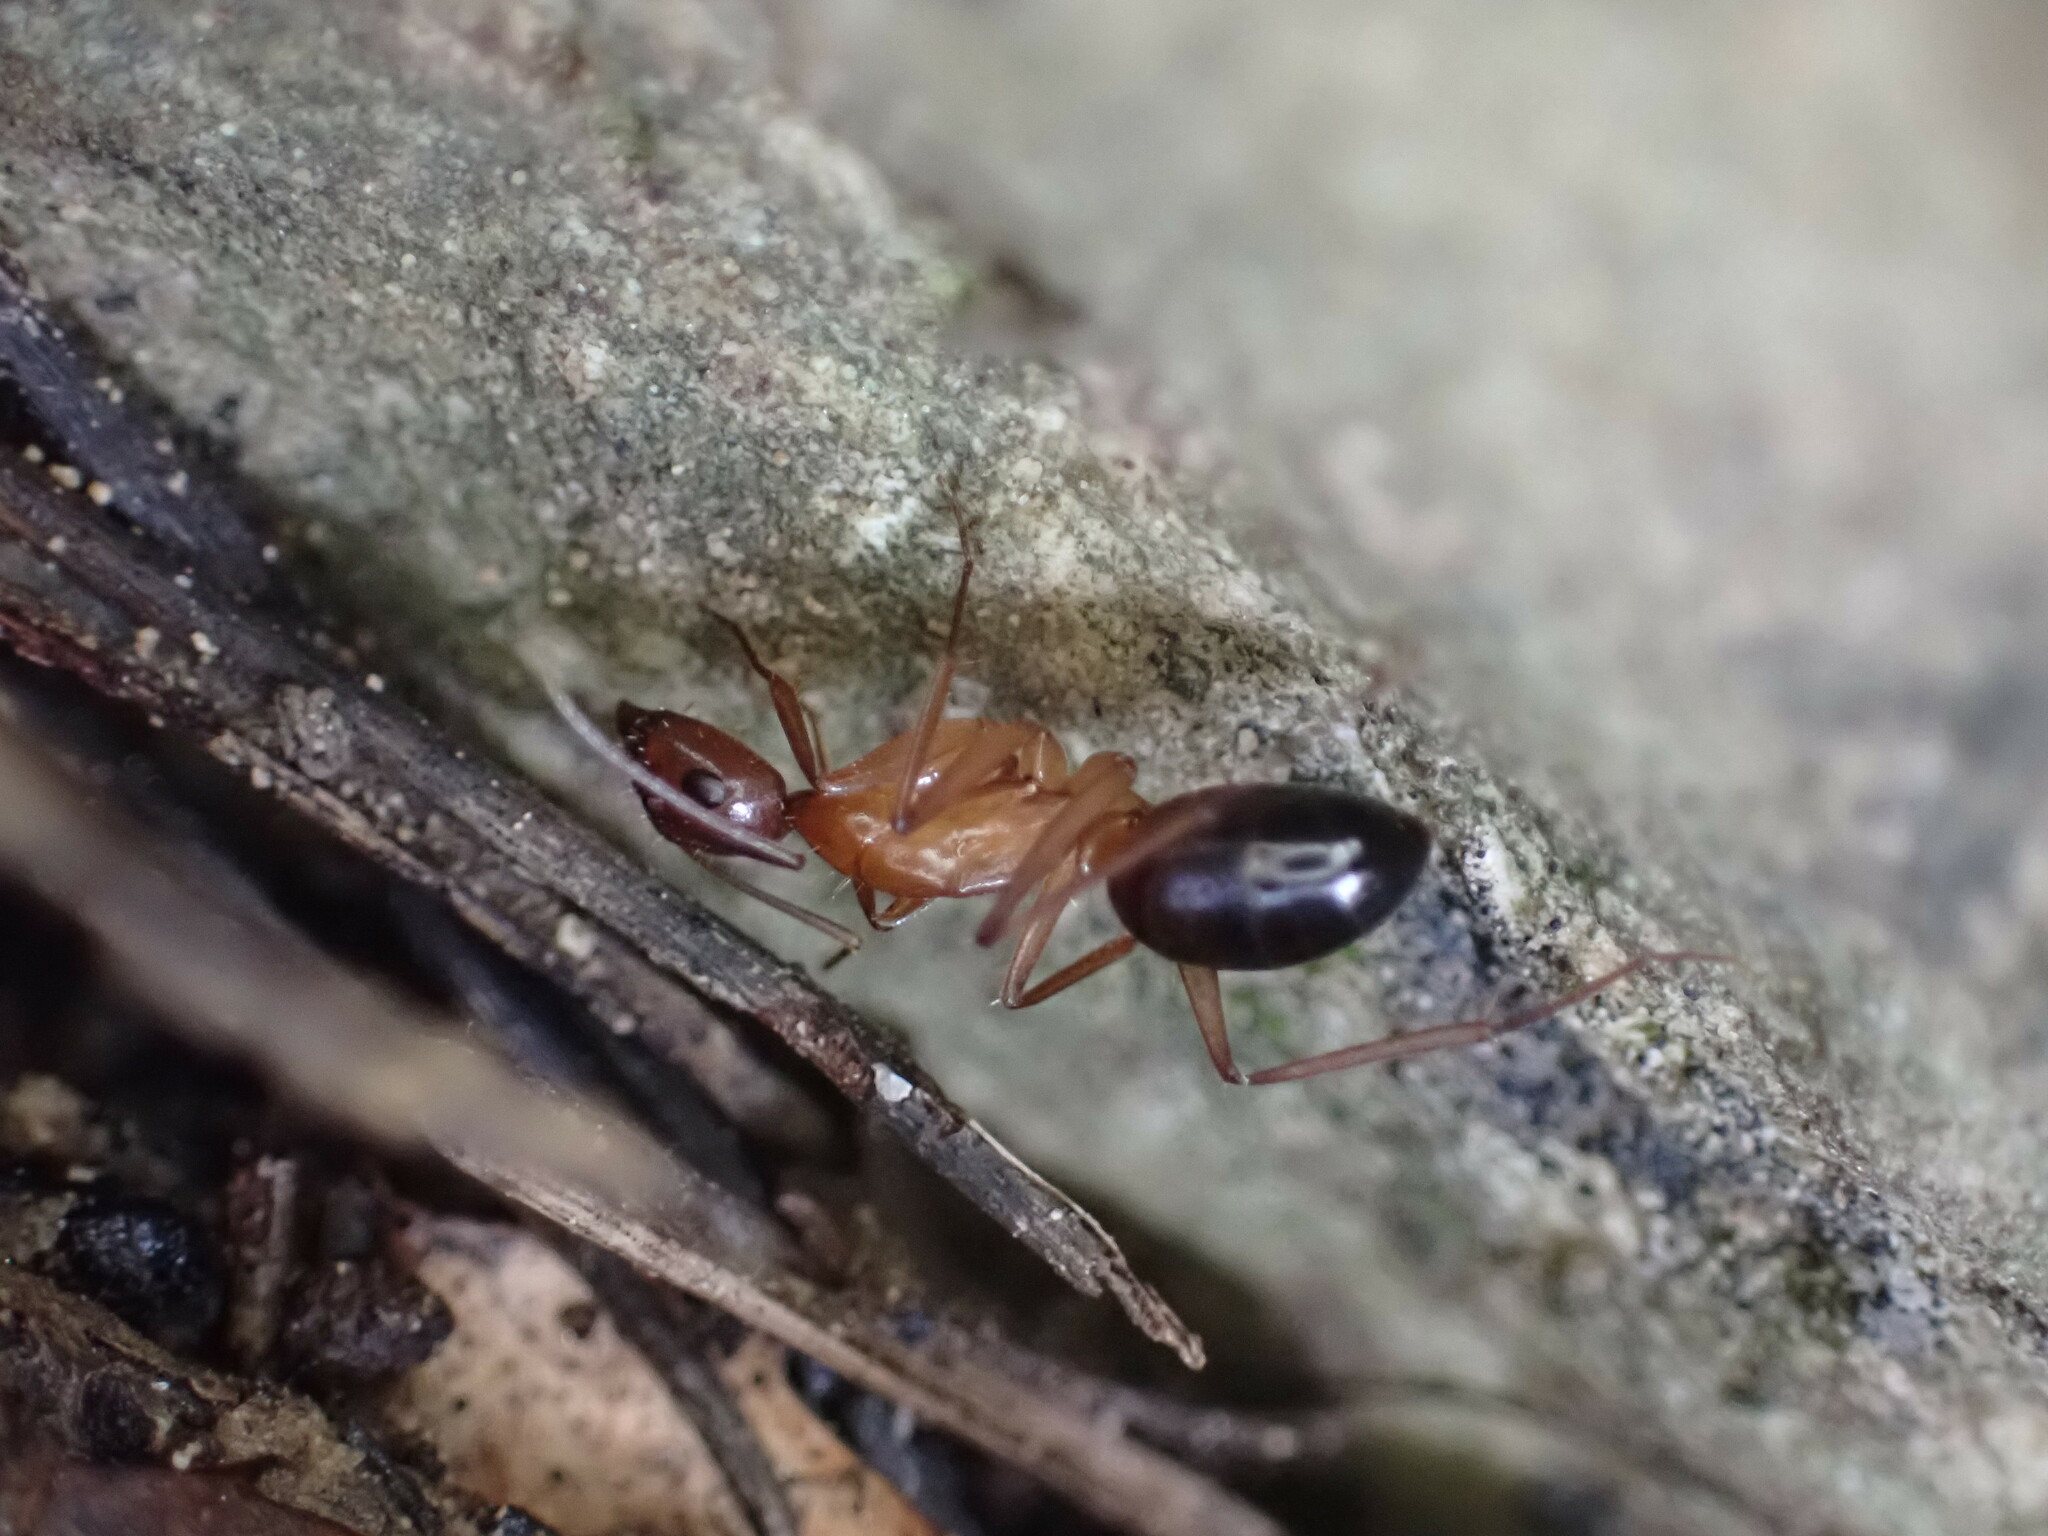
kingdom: Animalia
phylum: Arthropoda
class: Insecta
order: Hymenoptera
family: Formicidae
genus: Camponotus
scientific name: Camponotus pilicornis
